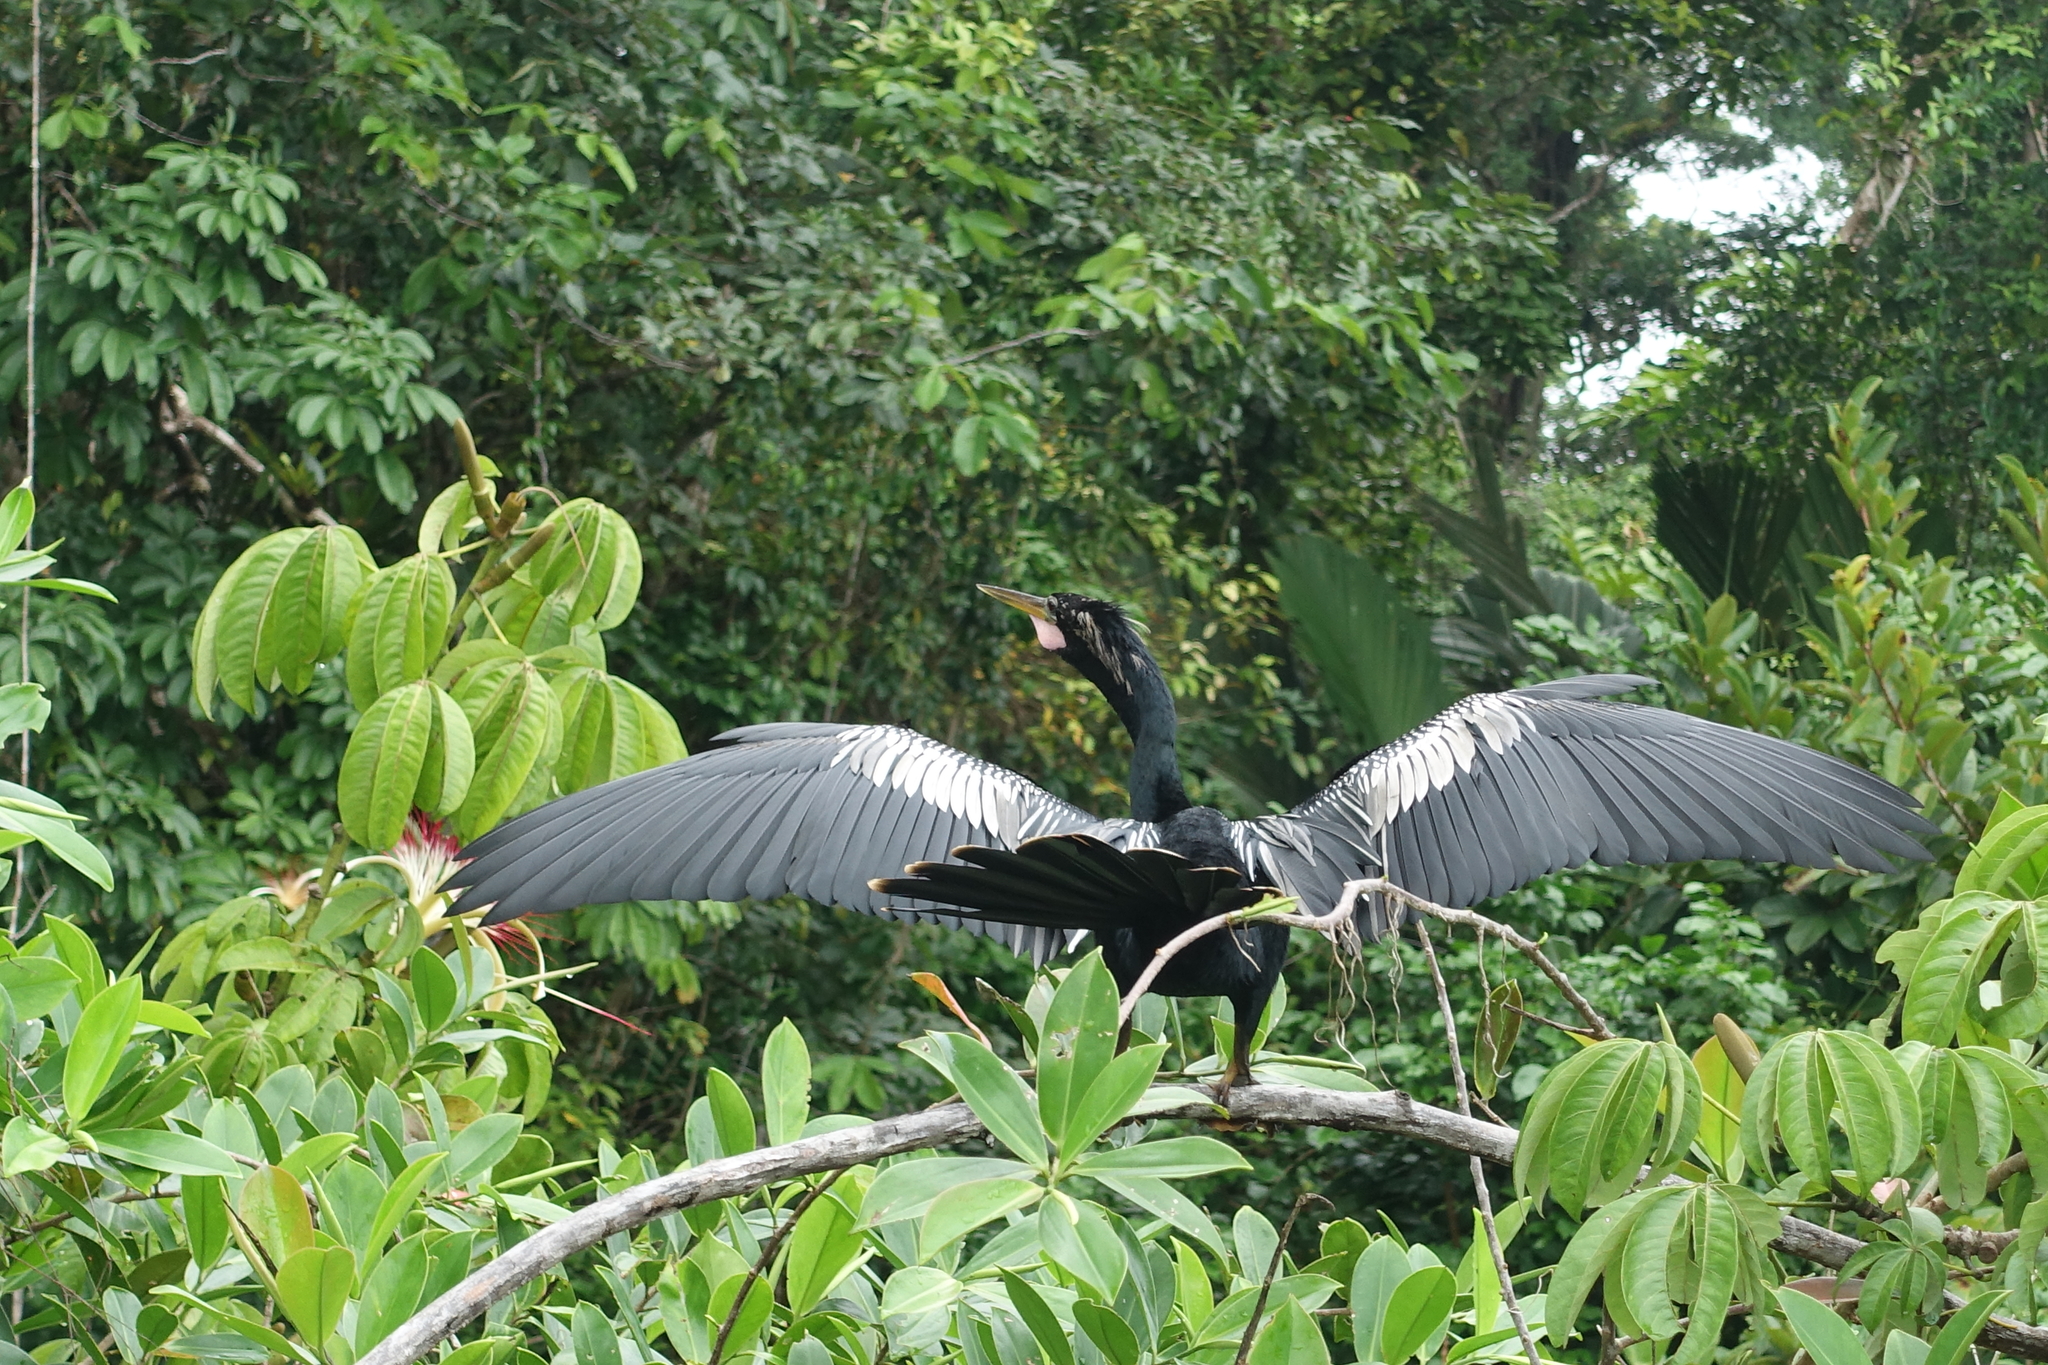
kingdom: Animalia
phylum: Chordata
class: Aves
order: Suliformes
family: Anhingidae
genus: Anhinga
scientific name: Anhinga anhinga
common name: Anhinga
